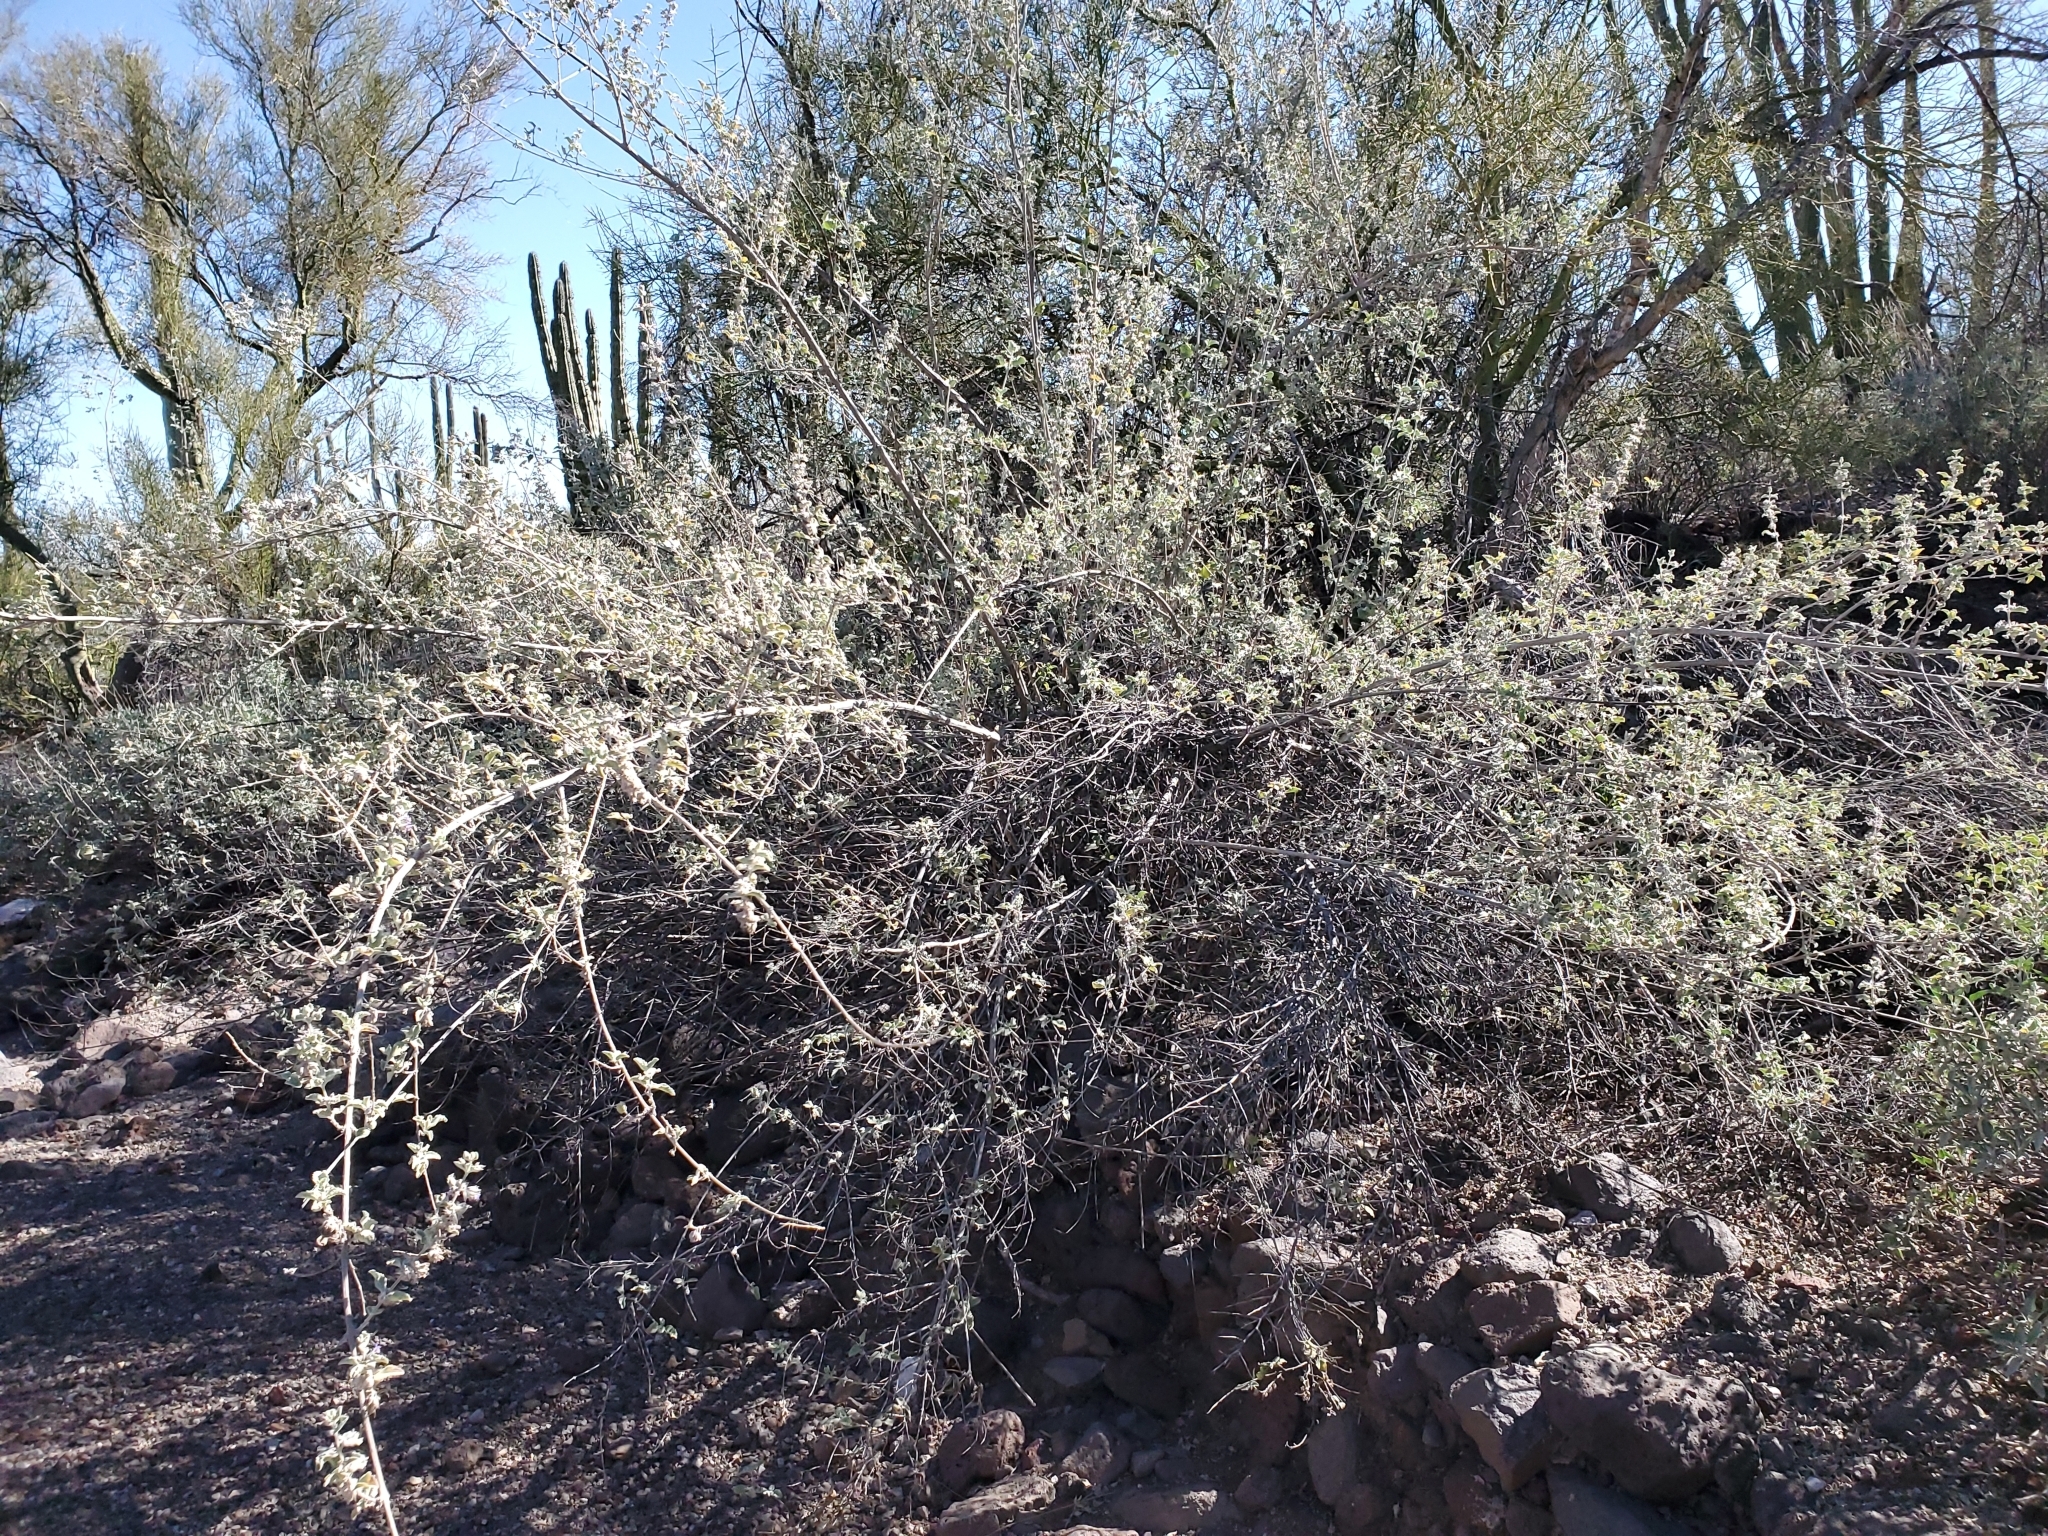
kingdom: Plantae
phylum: Tracheophyta
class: Magnoliopsida
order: Lamiales
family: Lamiaceae
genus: Condea
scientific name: Condea emoryi
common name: Chia
